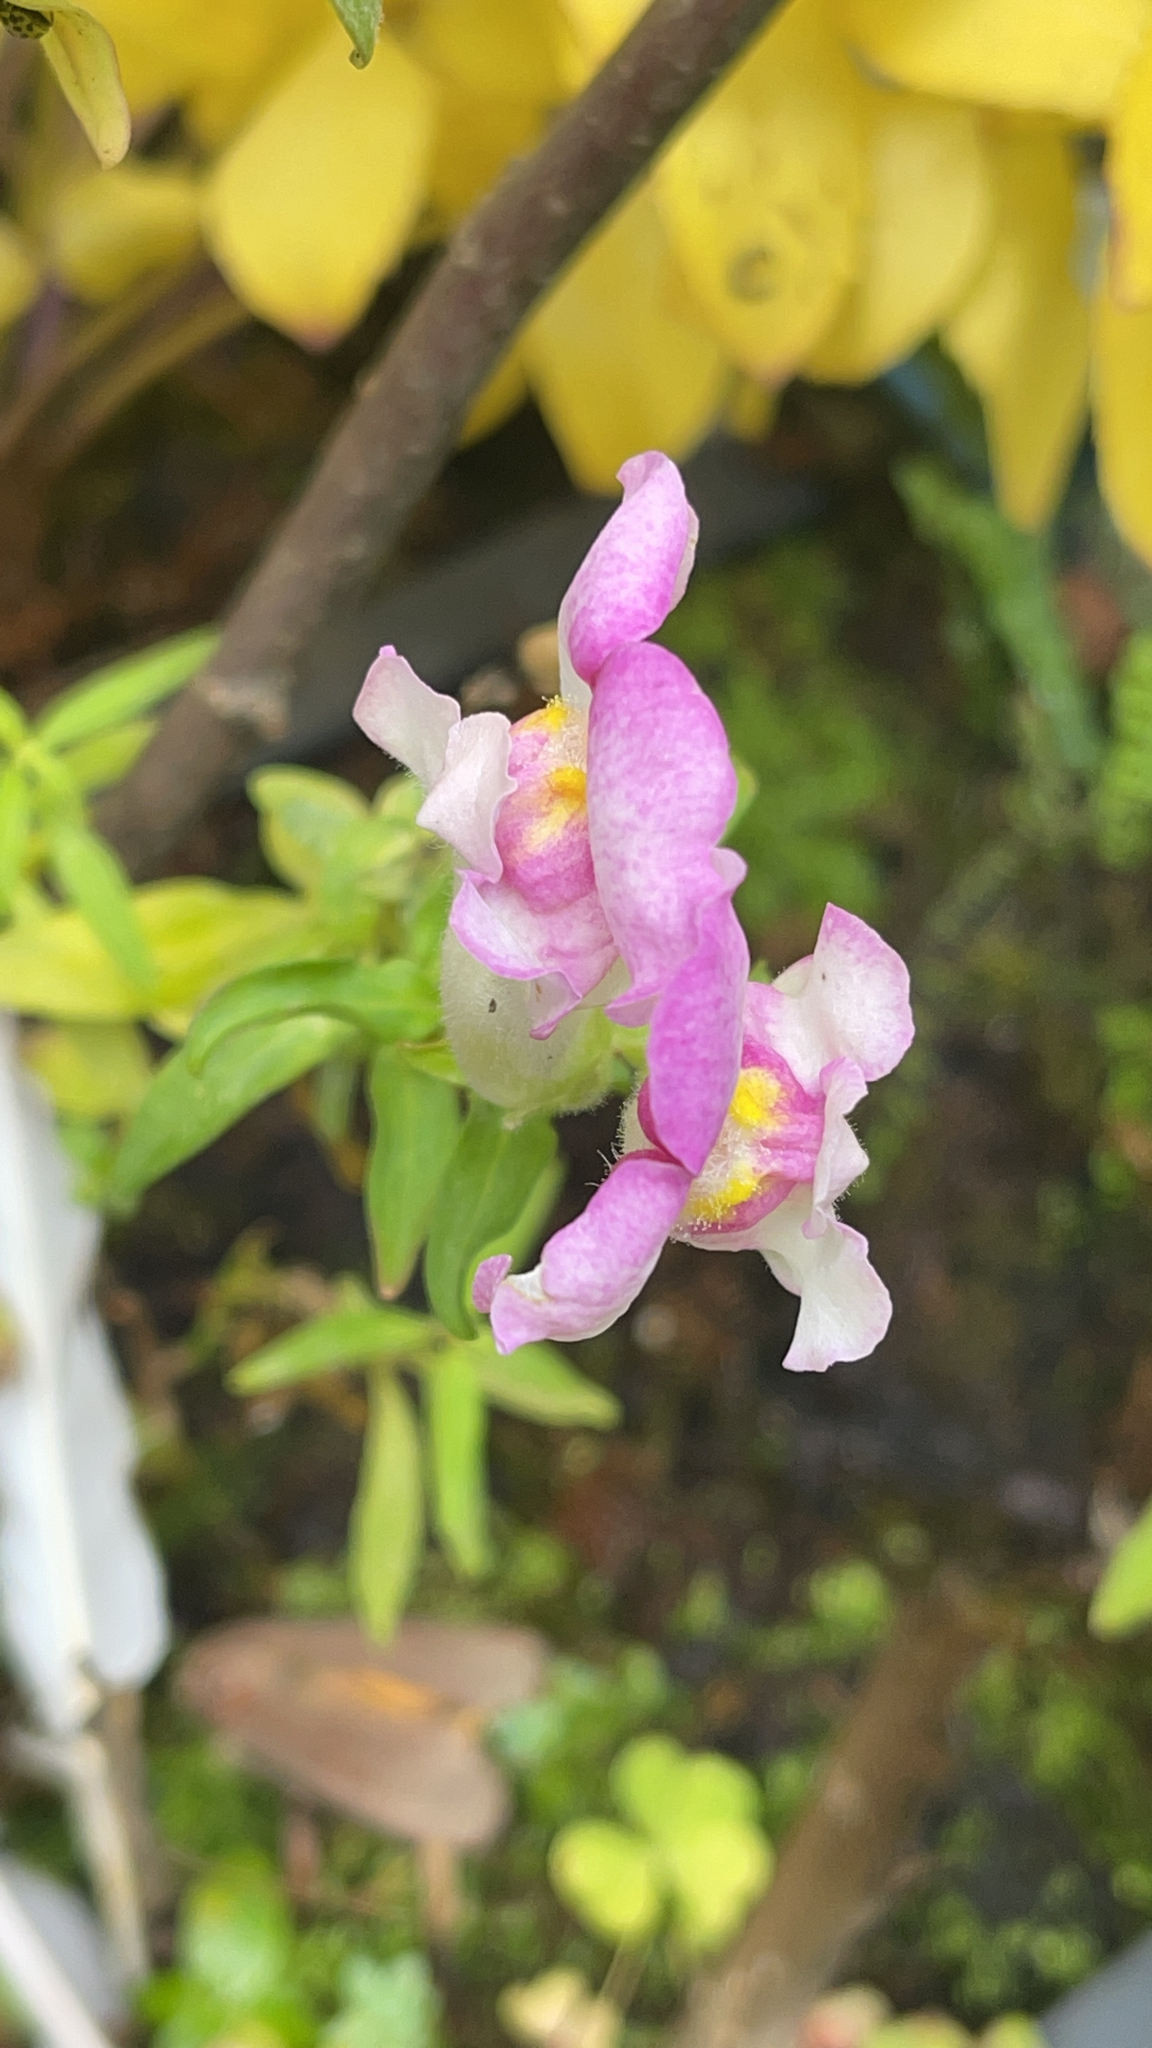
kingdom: Plantae
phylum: Tracheophyta
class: Magnoliopsida
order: Lamiales
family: Plantaginaceae
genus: Antirrhinum
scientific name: Antirrhinum majus
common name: Snapdragon
